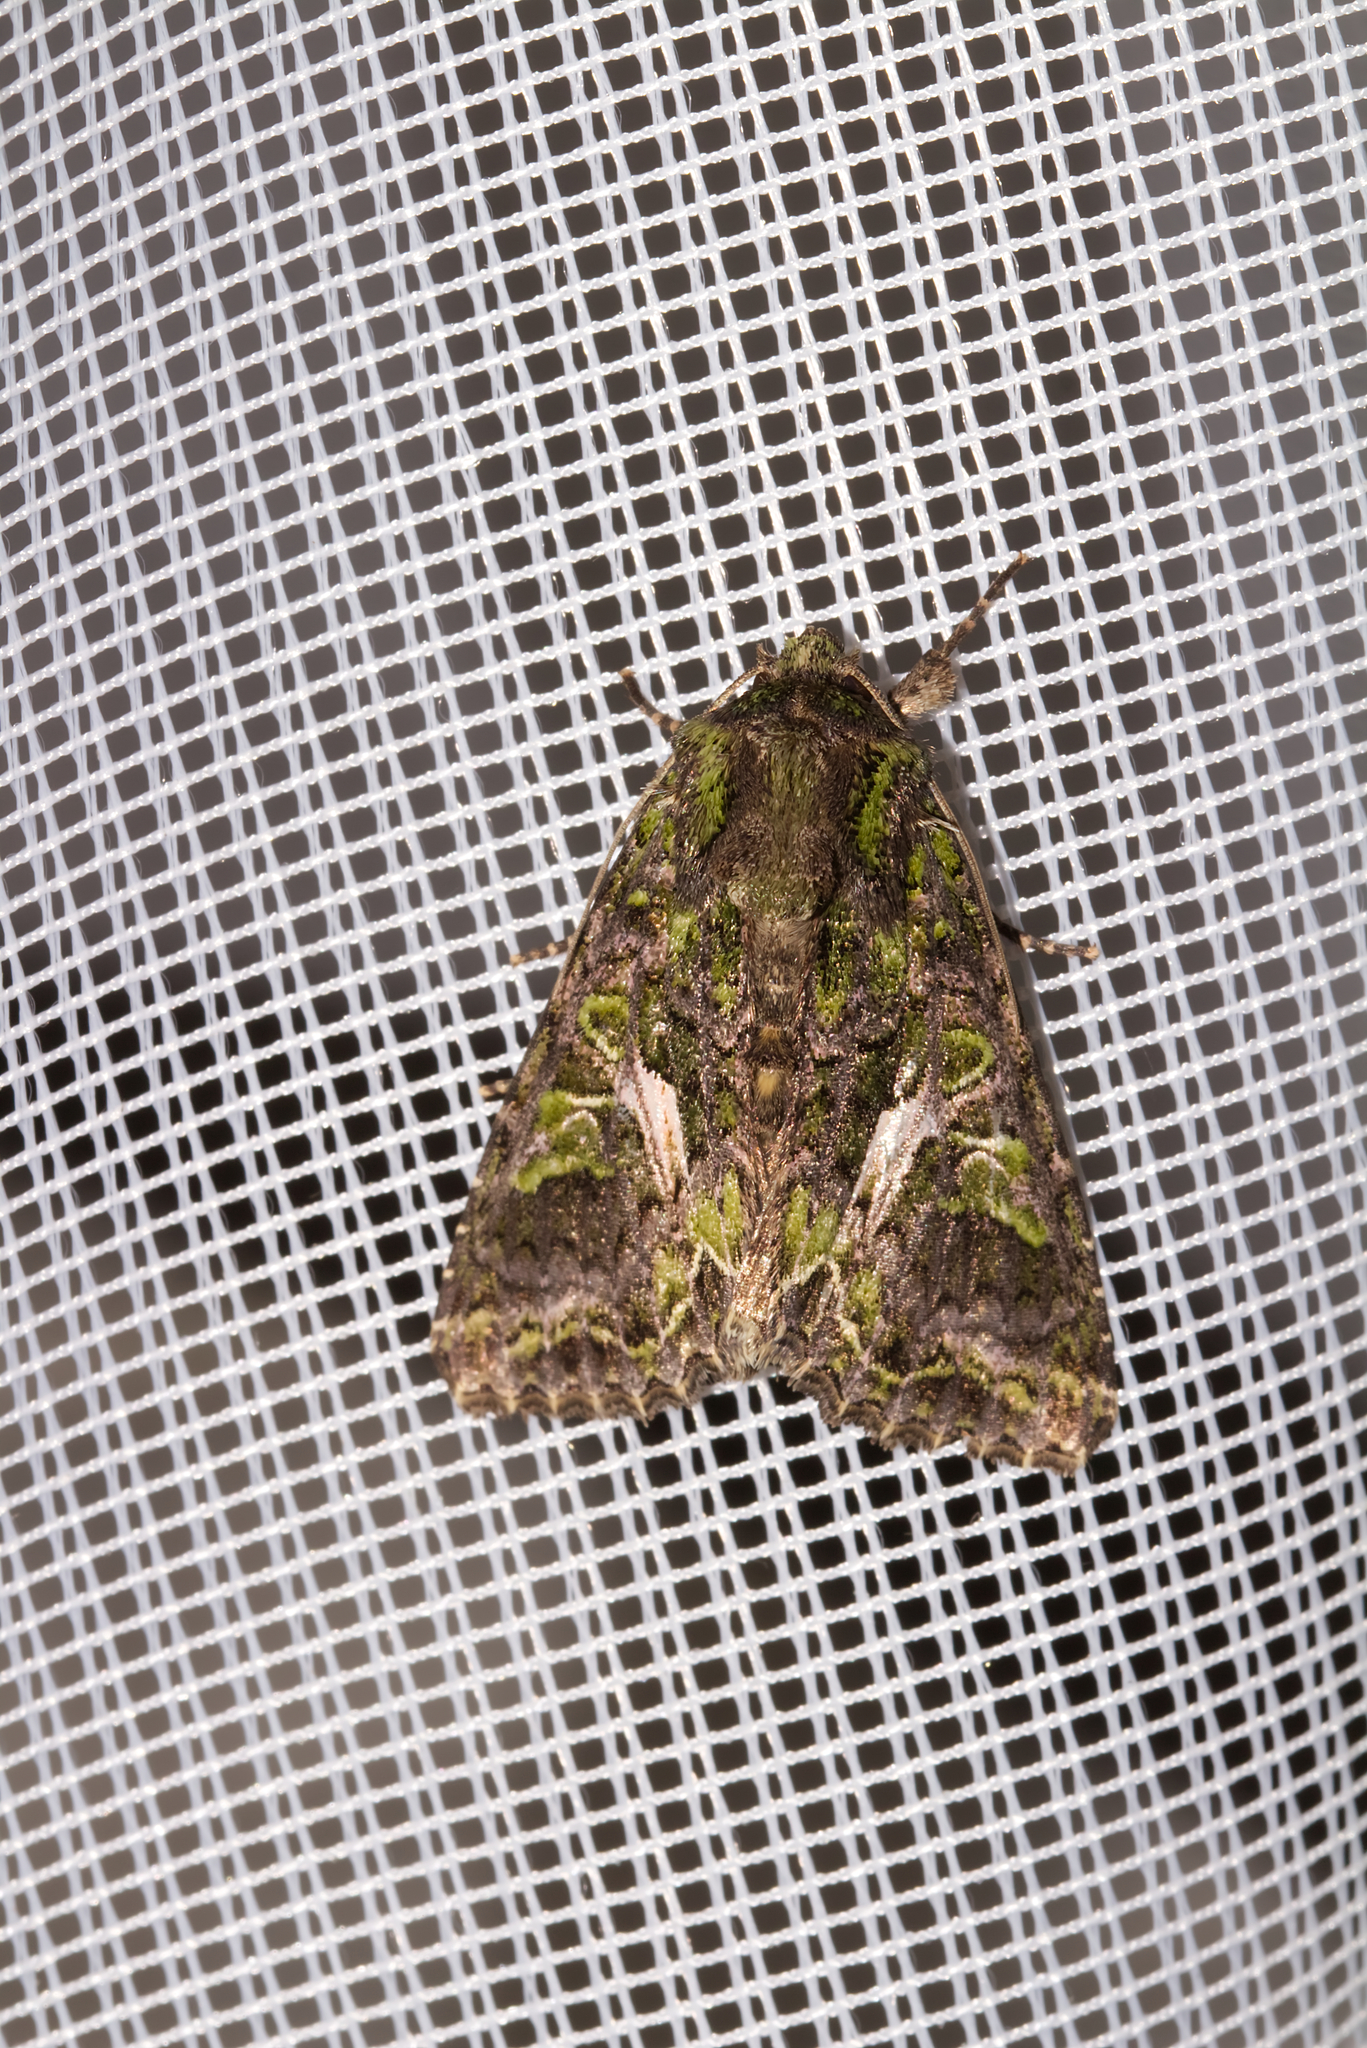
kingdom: Animalia
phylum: Arthropoda
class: Insecta
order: Lepidoptera
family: Noctuidae
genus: Trachea
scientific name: Trachea atriplicis
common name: Orache moth
